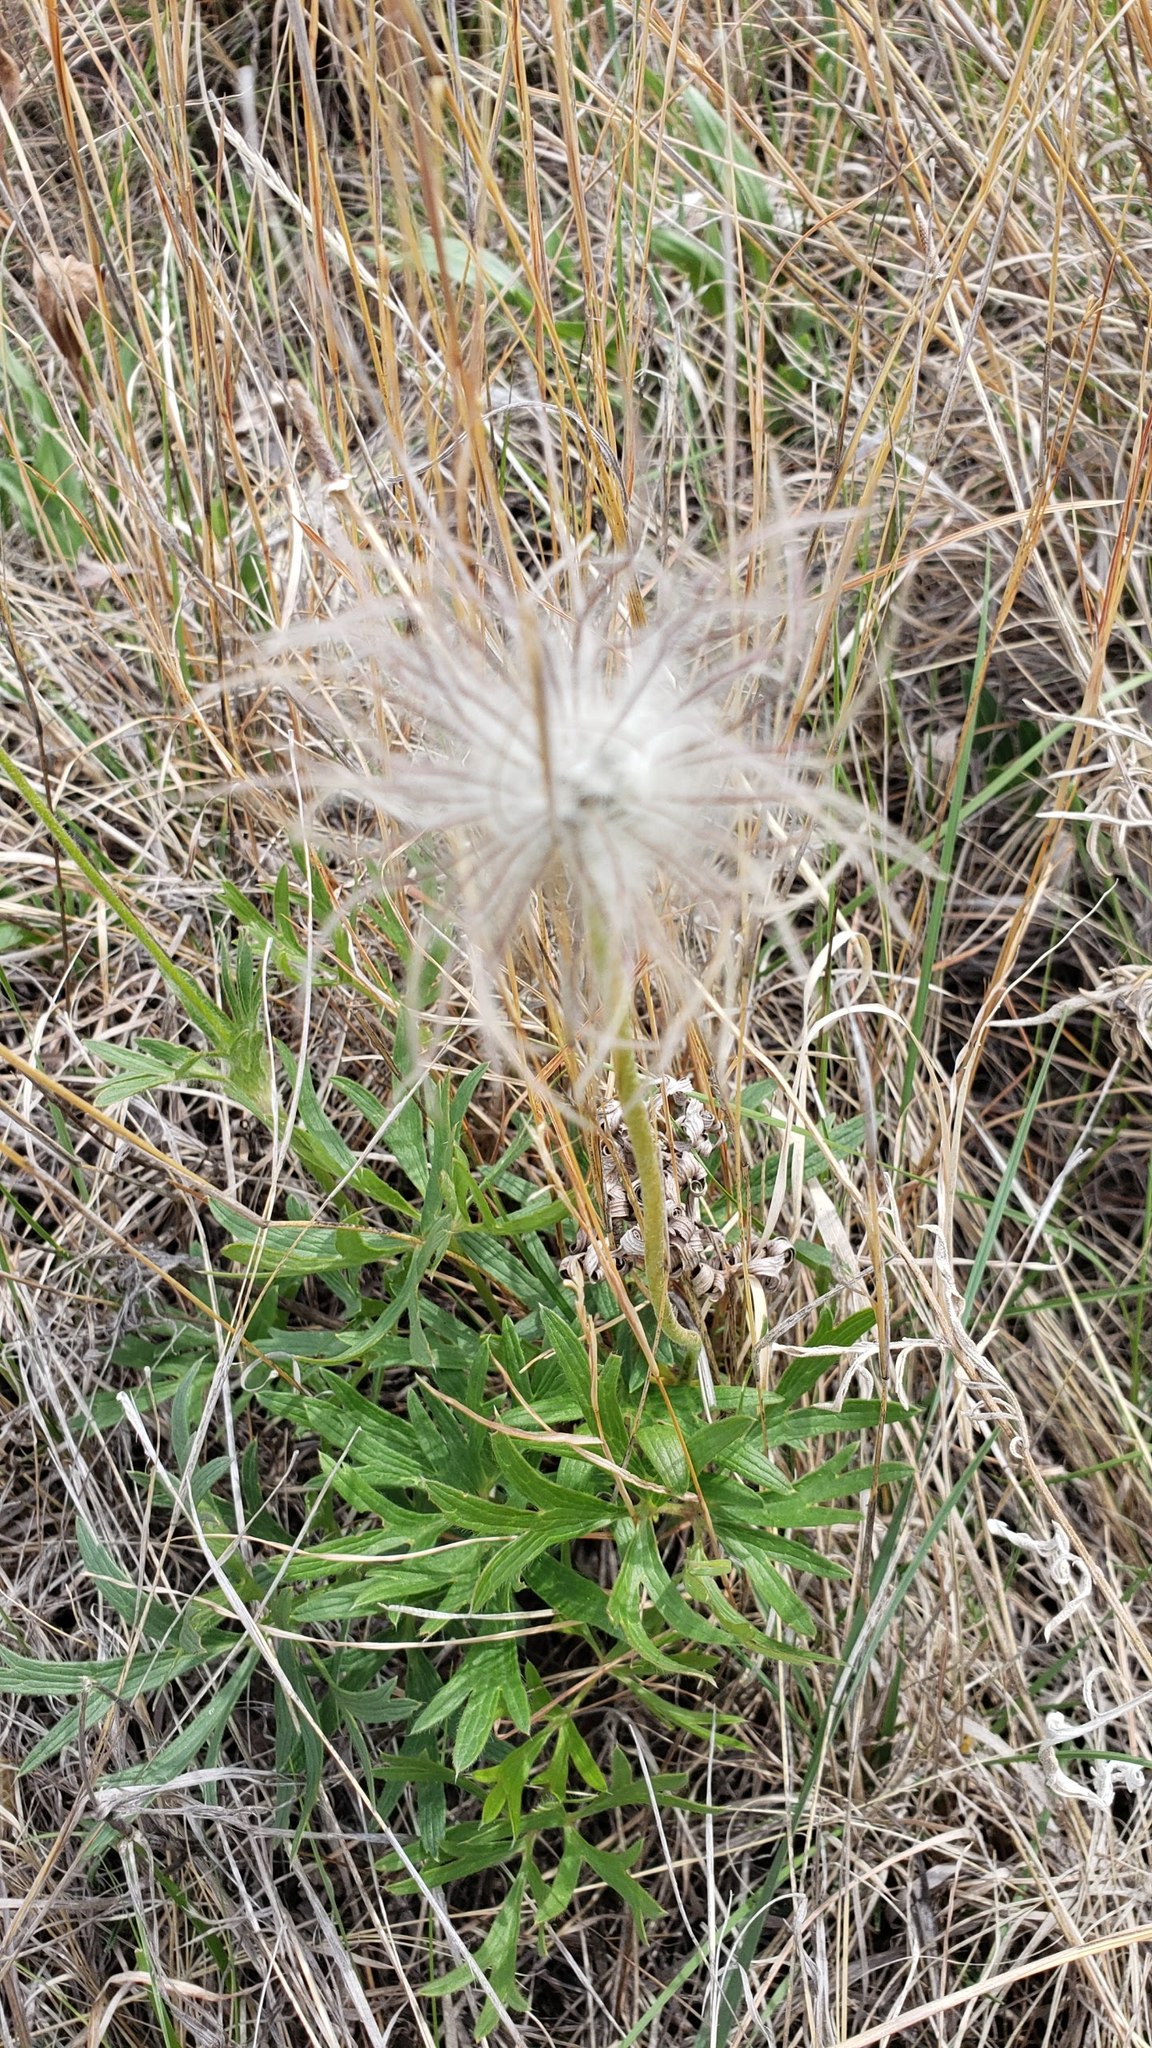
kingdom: Plantae
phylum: Tracheophyta
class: Magnoliopsida
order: Rosales
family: Rosaceae
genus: Geum
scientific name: Geum triflorum
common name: Old man's whiskers
